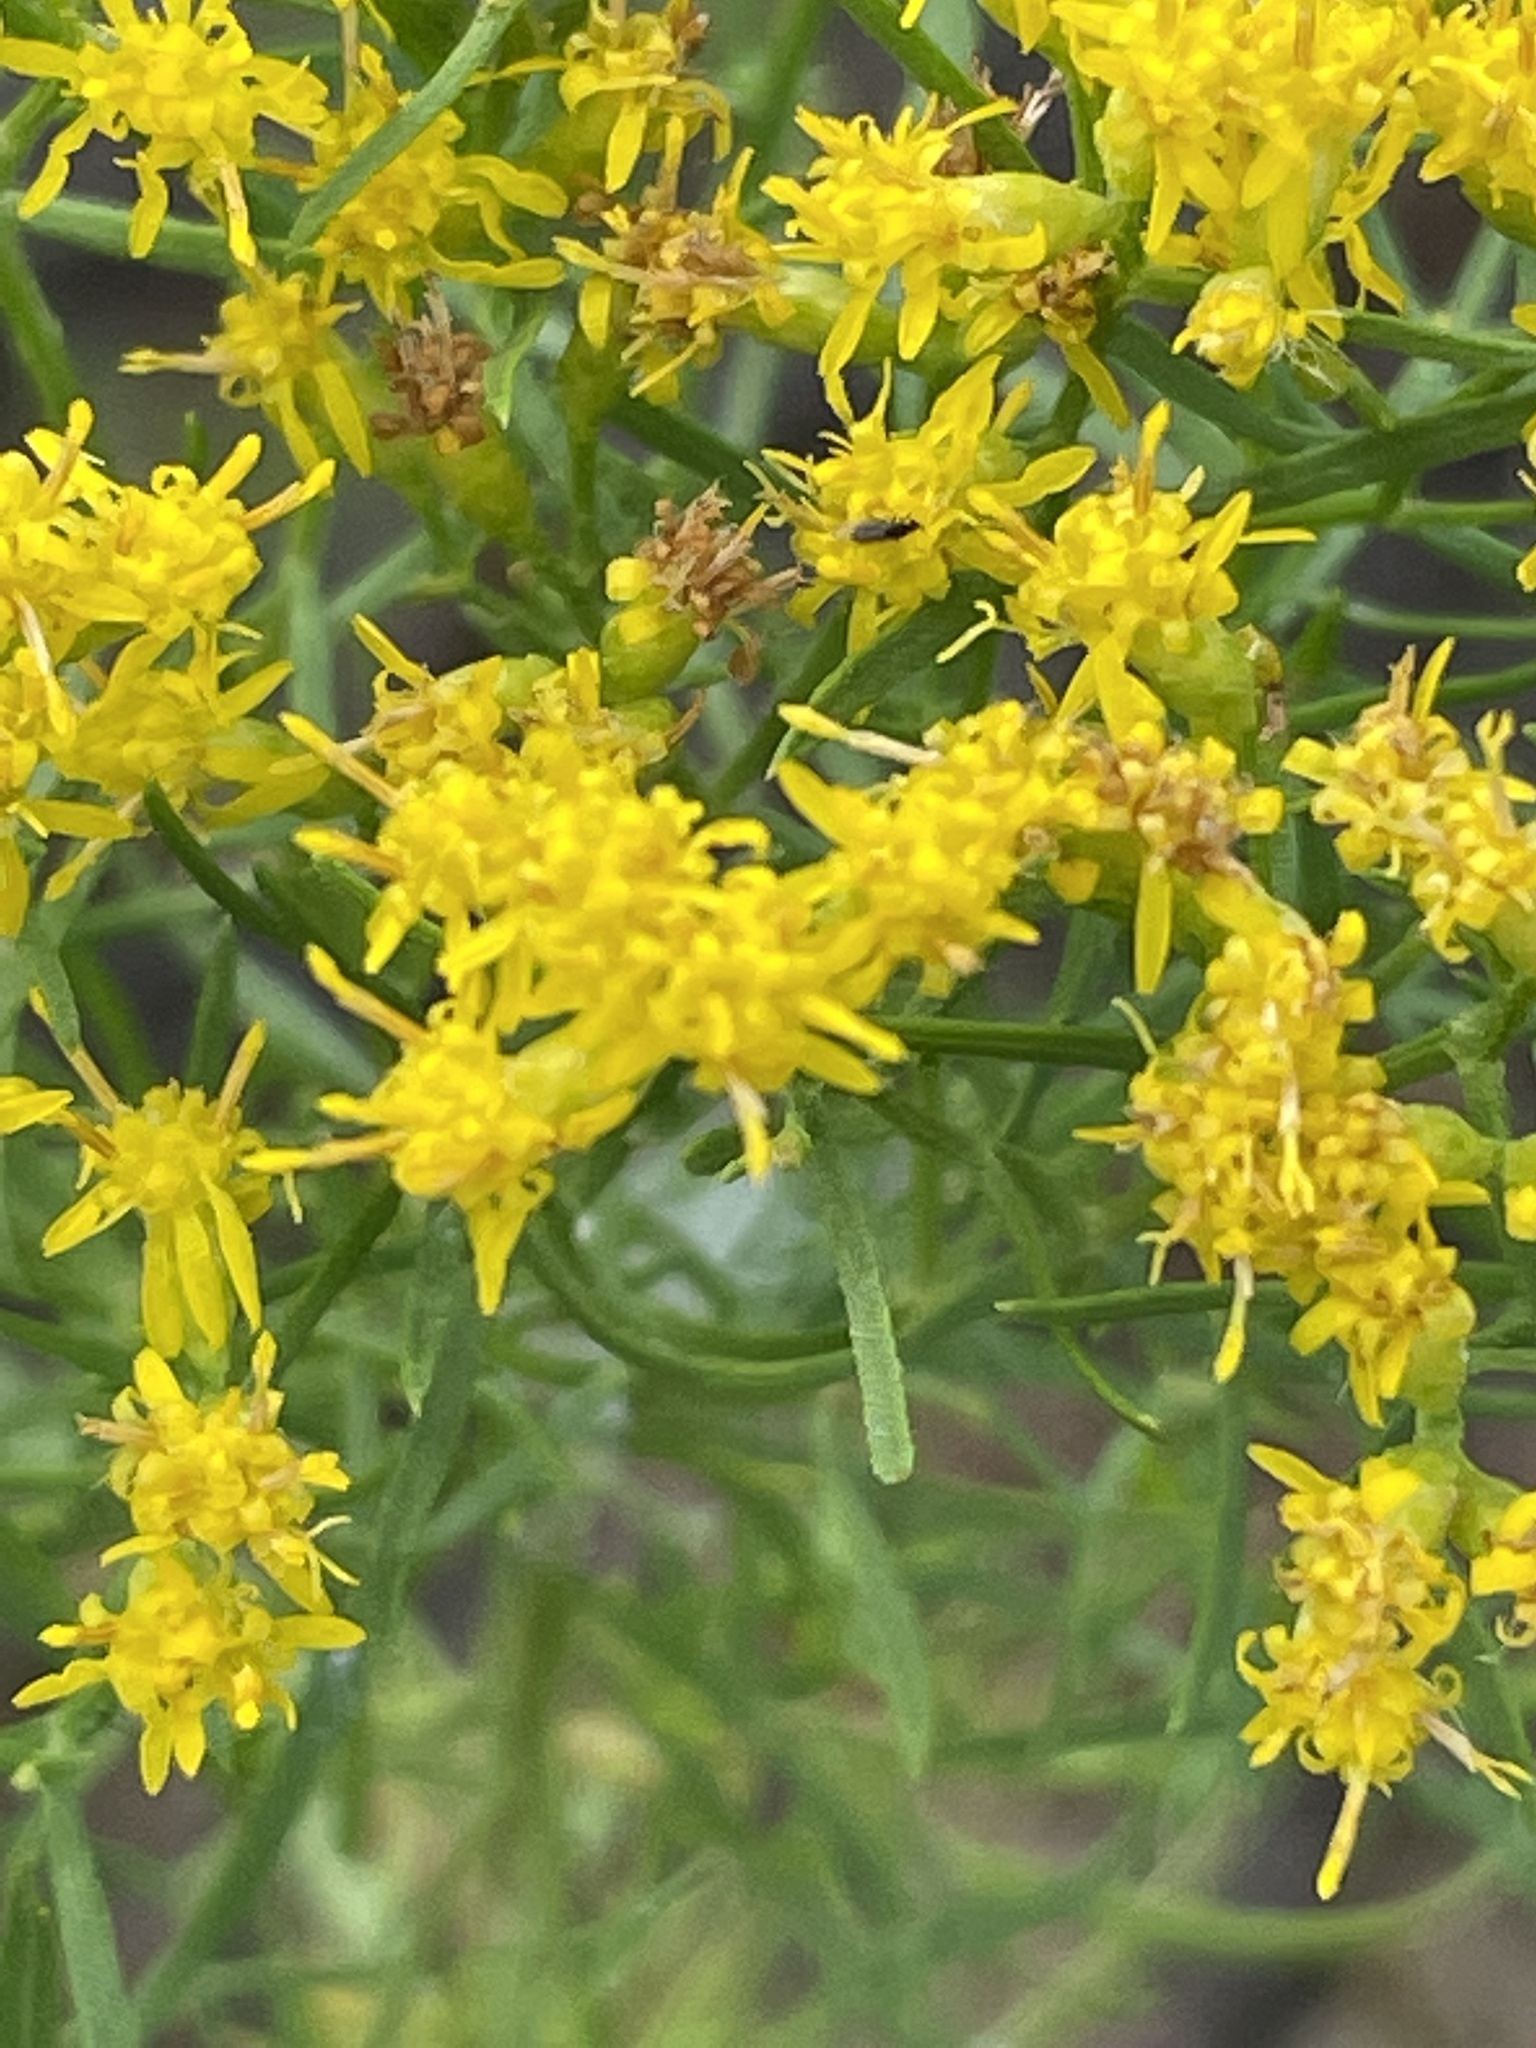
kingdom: Plantae
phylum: Tracheophyta
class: Magnoliopsida
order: Asterales
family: Asteraceae
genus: Euthamia
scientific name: Euthamia caroliniana
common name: Coastal plain goldentop
